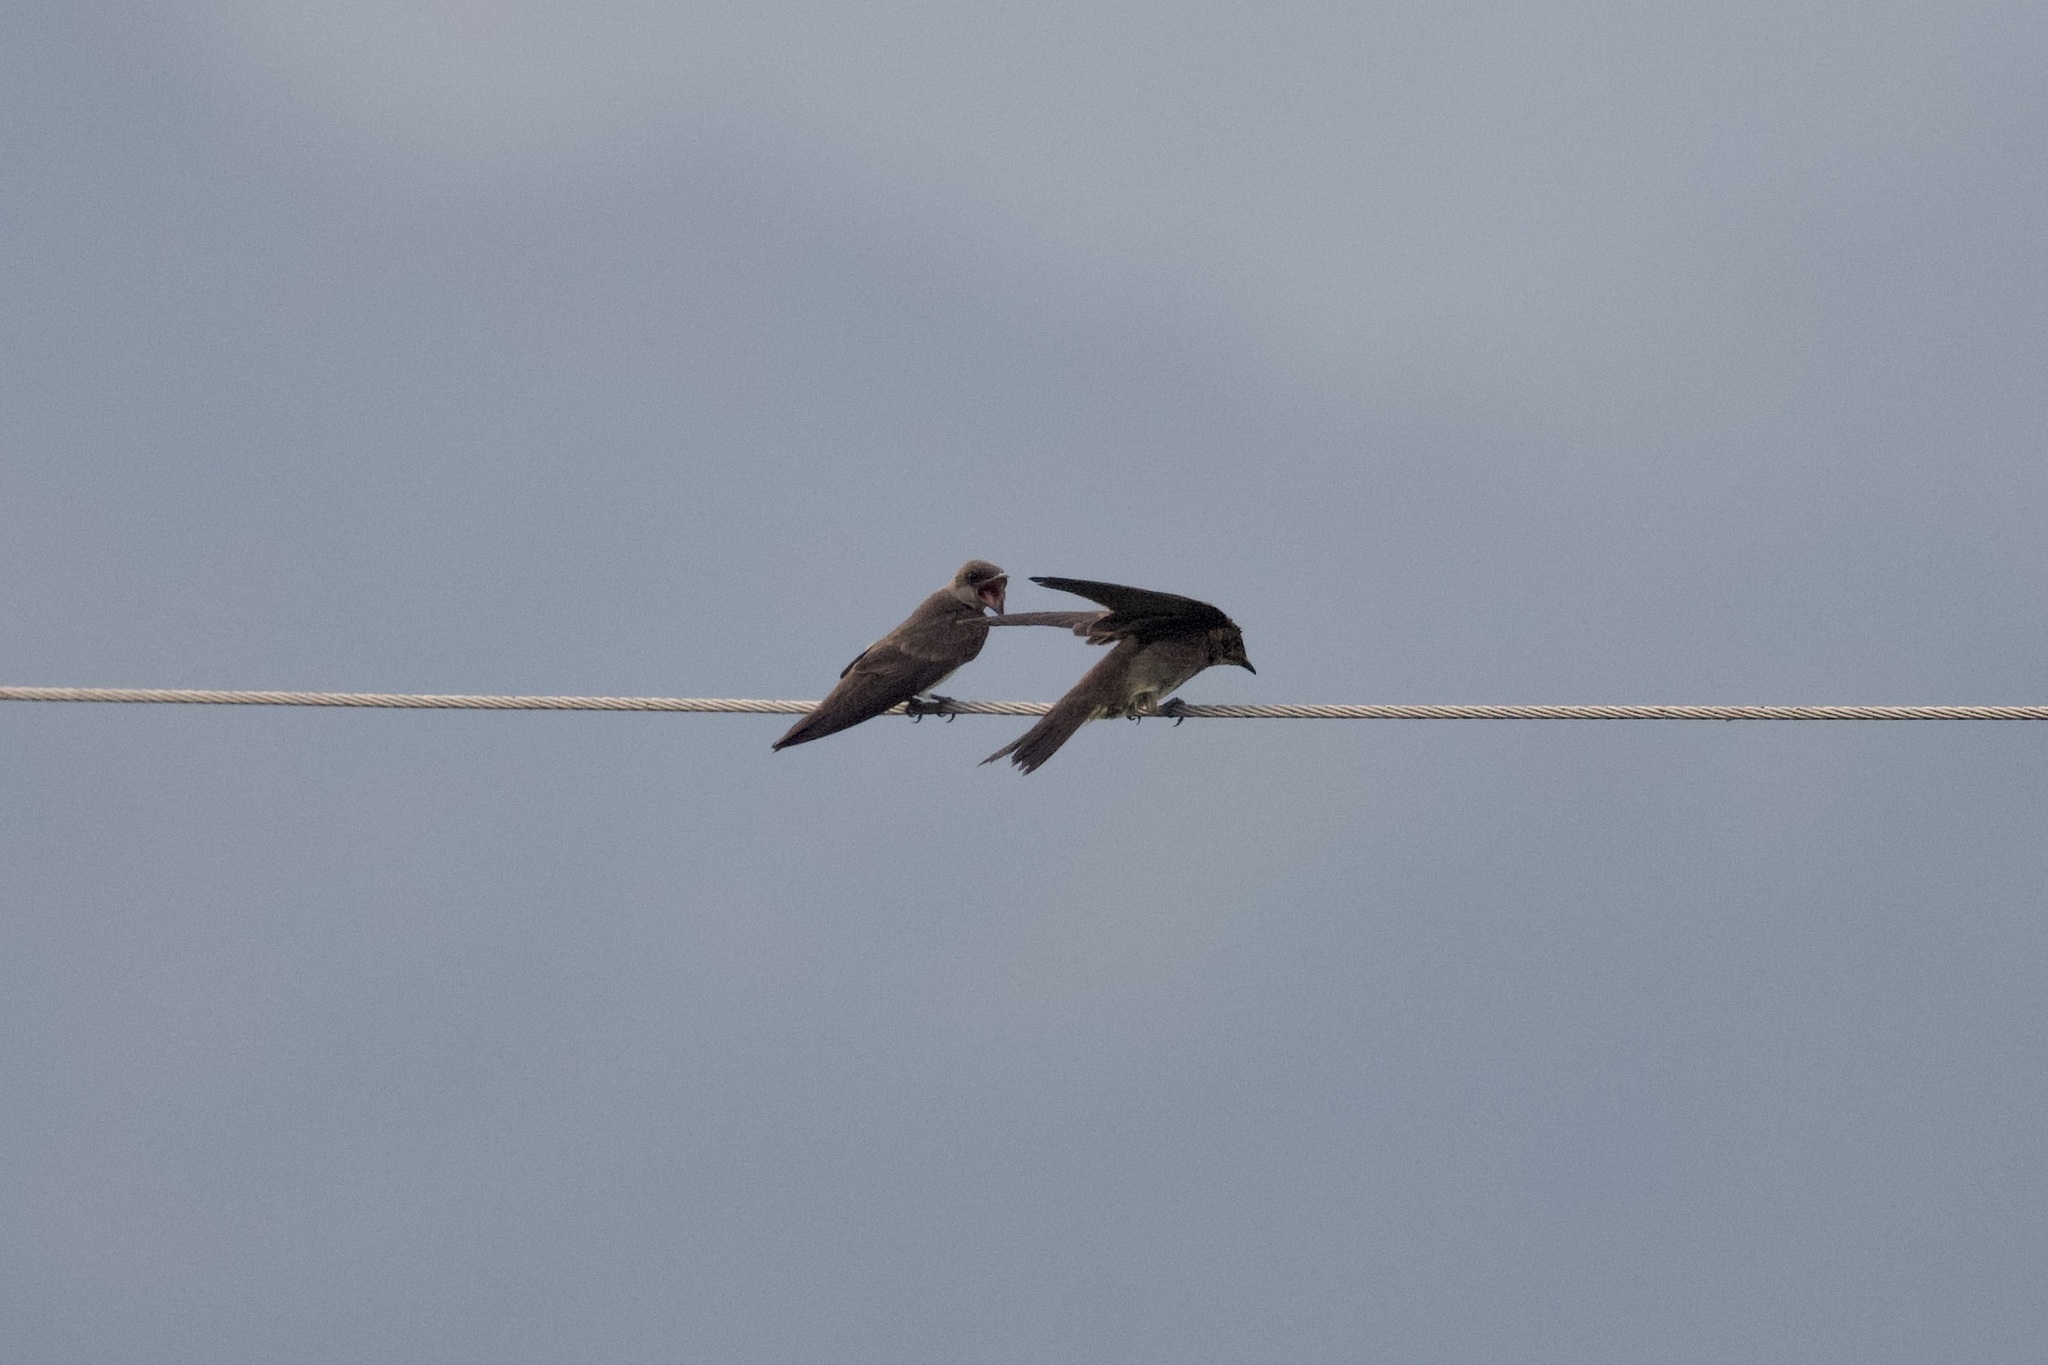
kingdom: Animalia
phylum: Chordata
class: Aves
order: Passeriformes
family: Hirundinidae
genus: Progne
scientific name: Progne tapera
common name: Brown-chested martin
